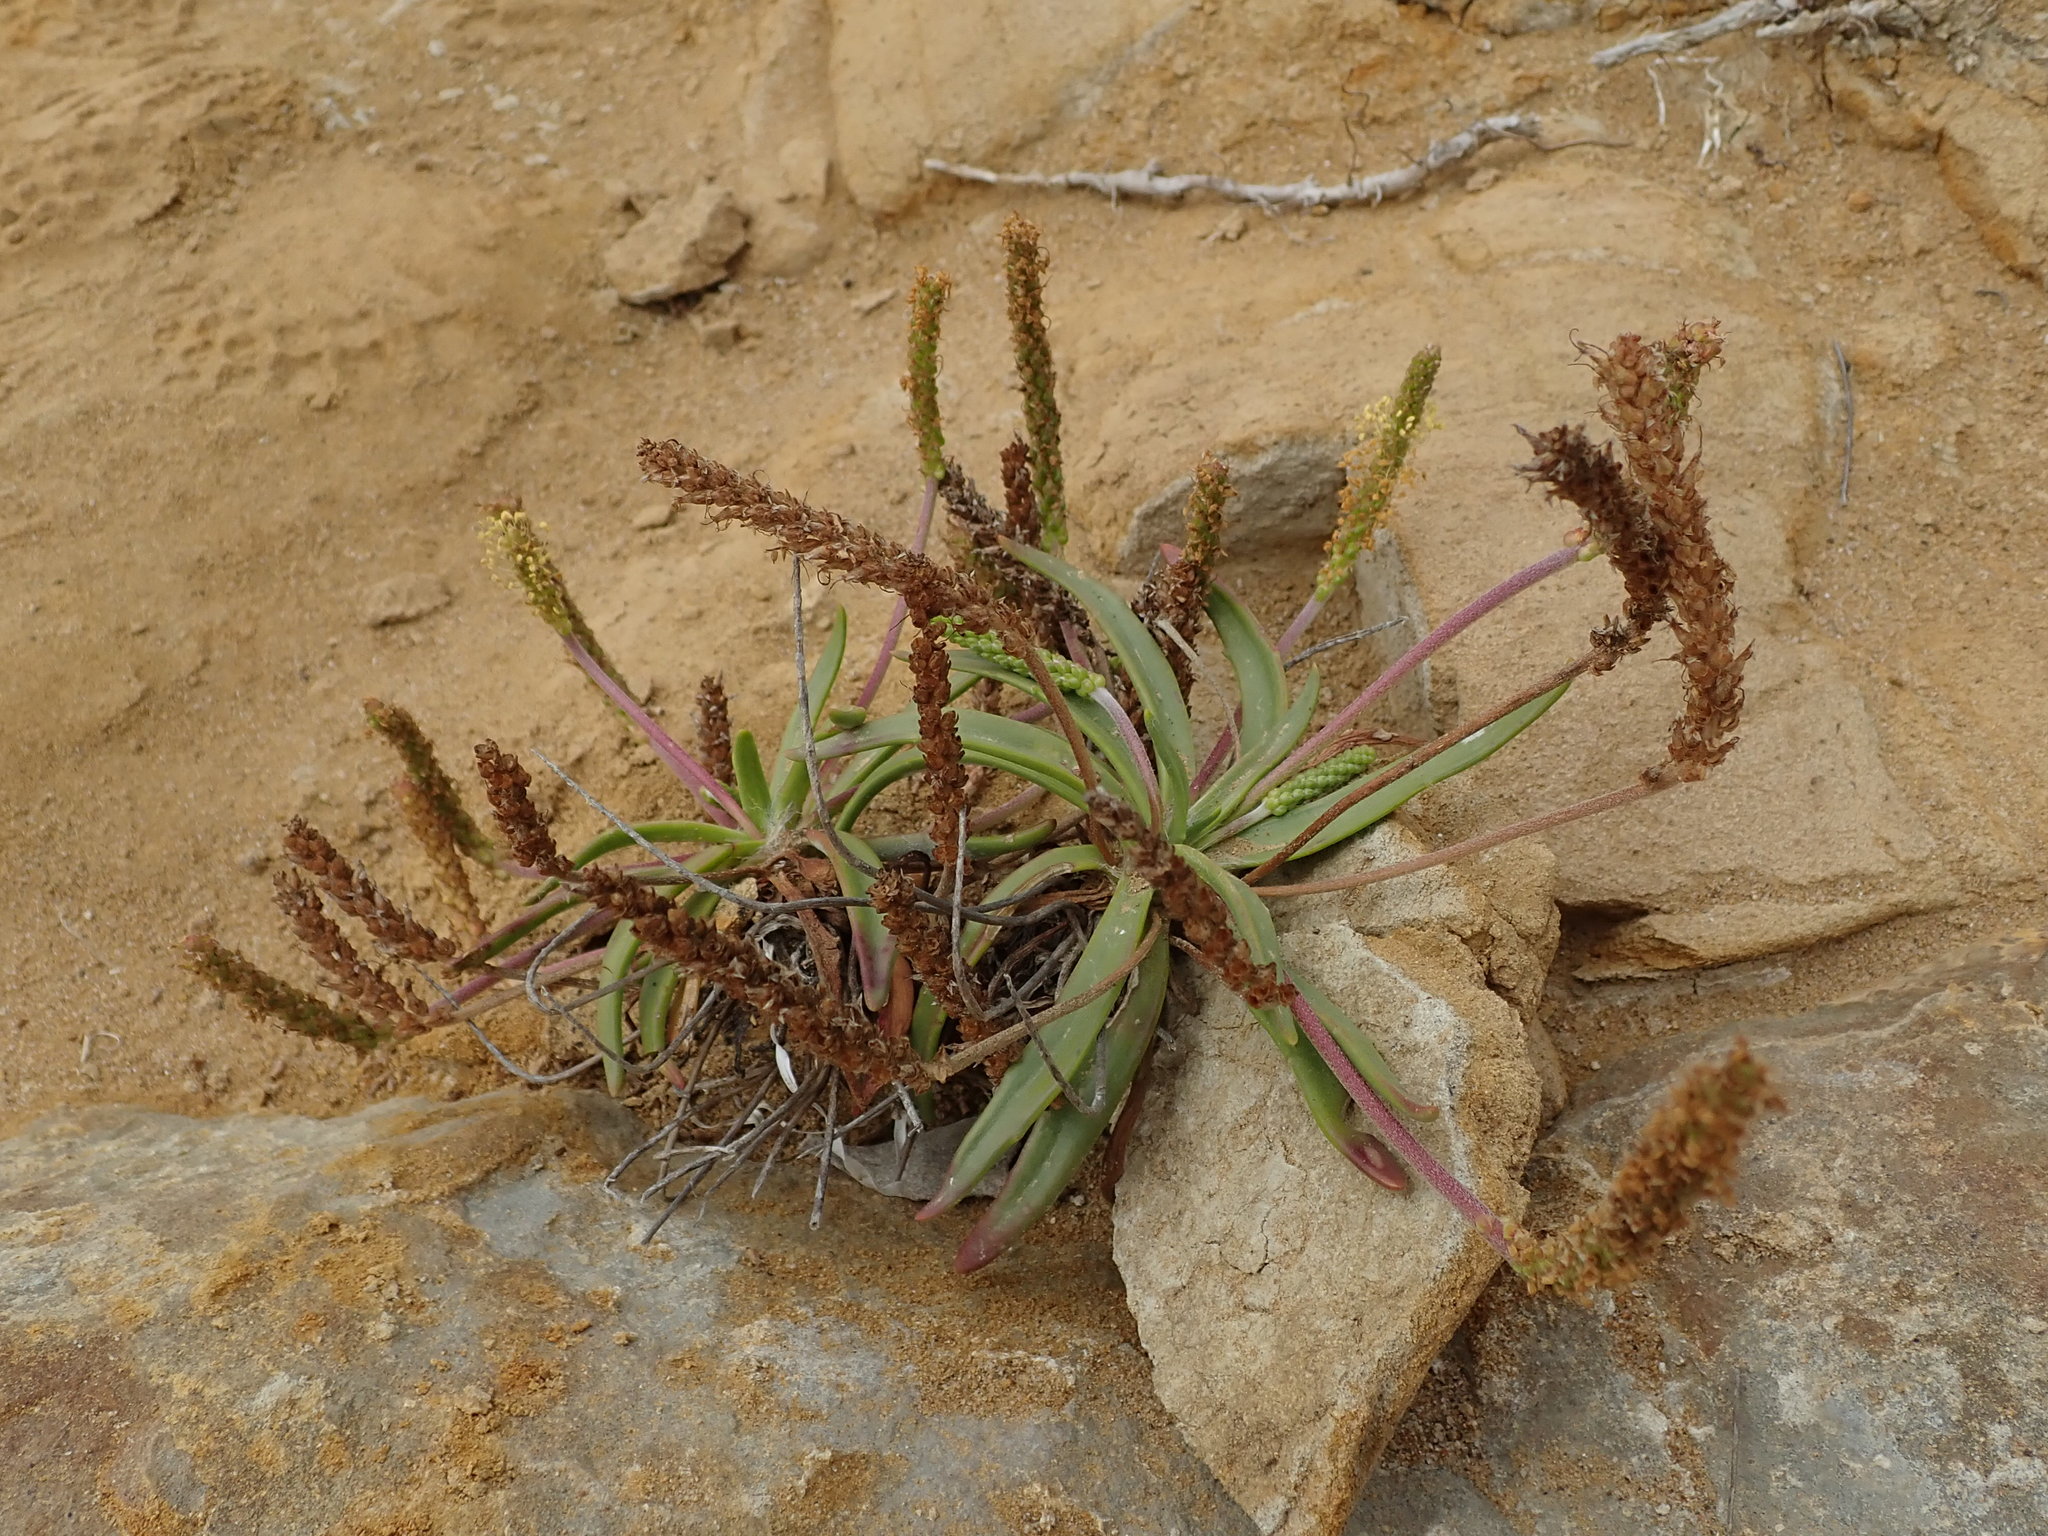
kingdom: Plantae
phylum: Tracheophyta
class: Magnoliopsida
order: Lamiales
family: Plantaginaceae
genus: Plantago
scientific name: Plantago maritima
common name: Sea plantain
